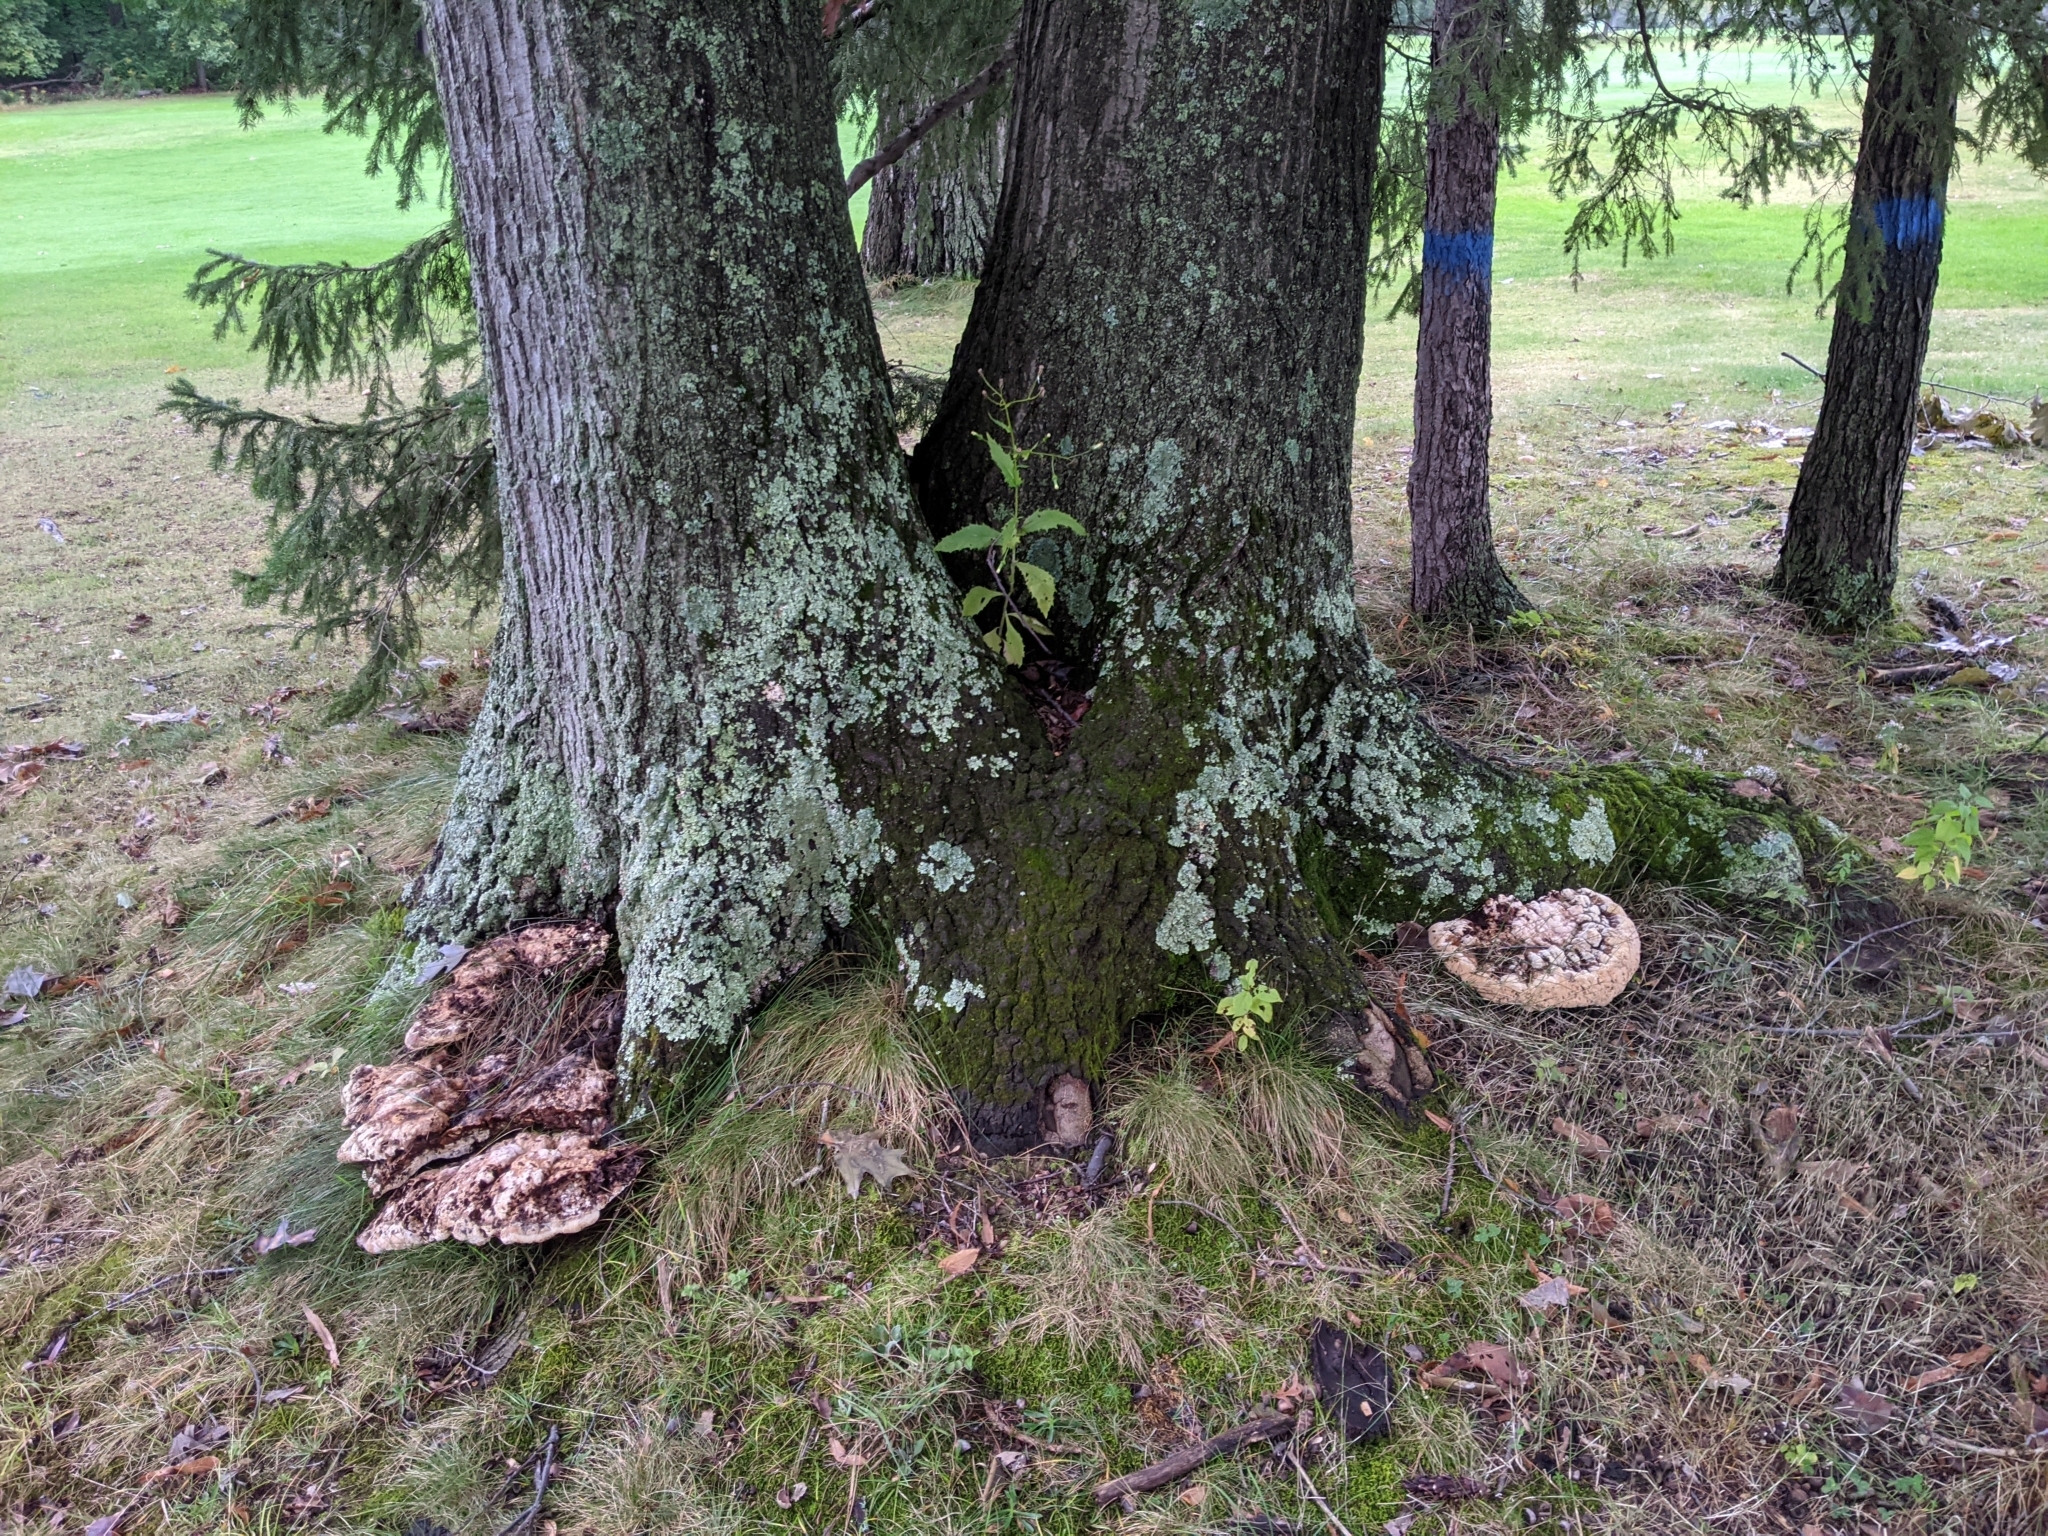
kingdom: Fungi
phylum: Basidiomycota
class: Agaricomycetes
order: Hymenochaetales
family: Hymenochaetaceae
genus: Pseudoinonotus
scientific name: Pseudoinonotus dryadeus
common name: Oak bracket
